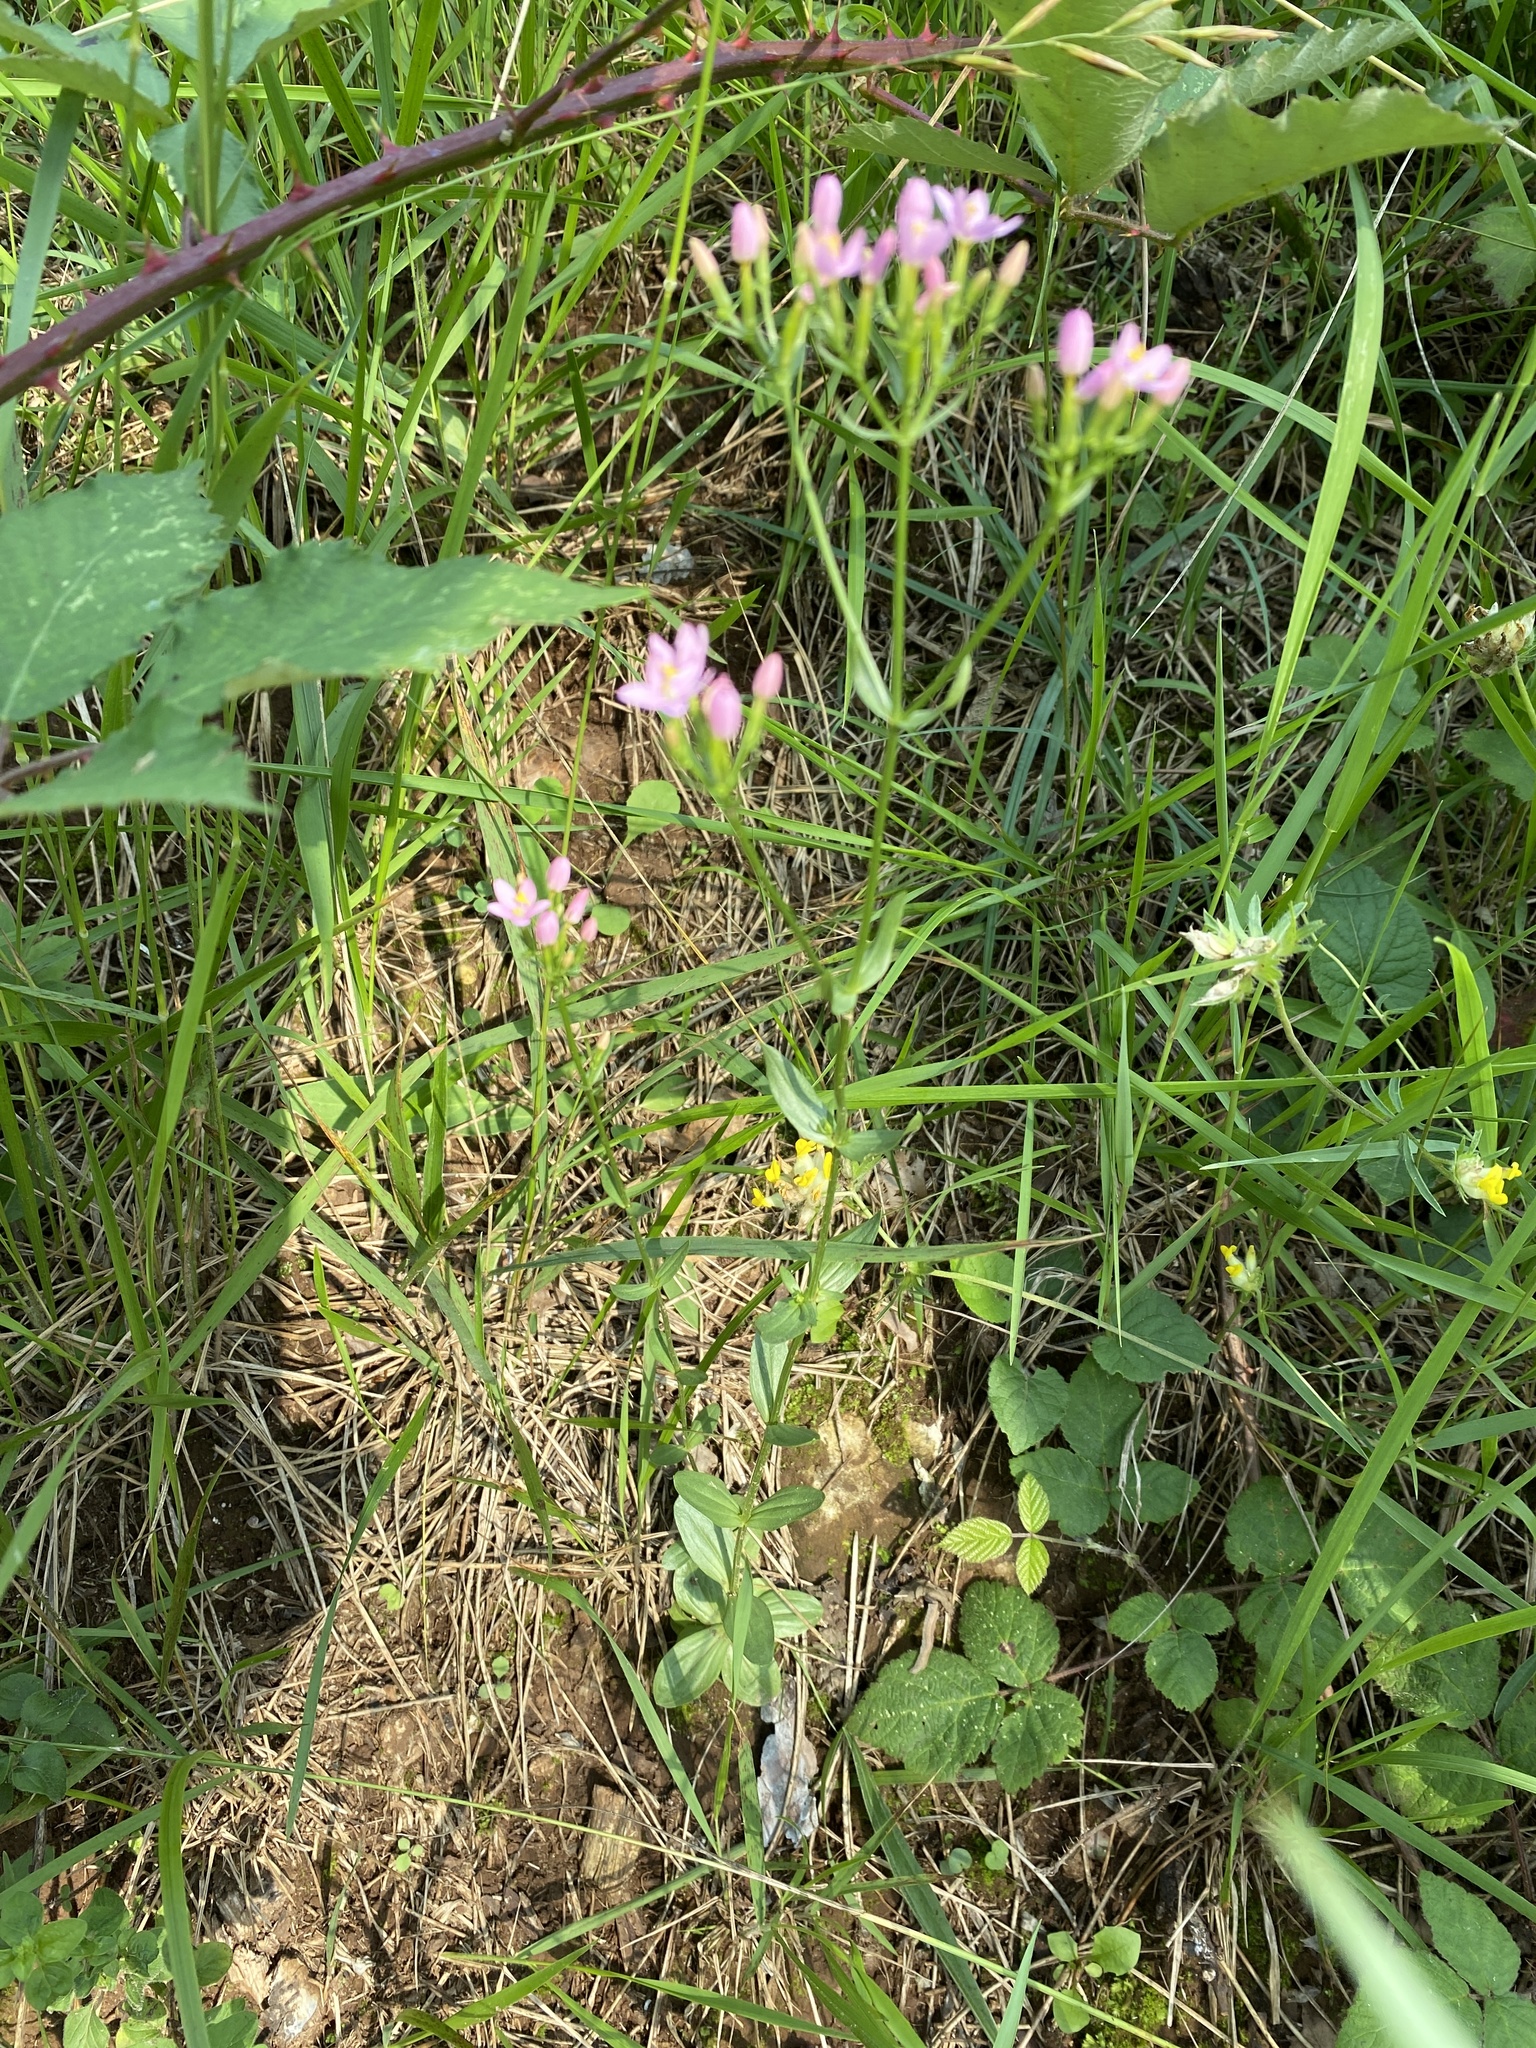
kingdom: Plantae
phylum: Tracheophyta
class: Magnoliopsida
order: Gentianales
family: Gentianaceae
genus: Centaurium
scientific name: Centaurium erythraea
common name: Common centaury
